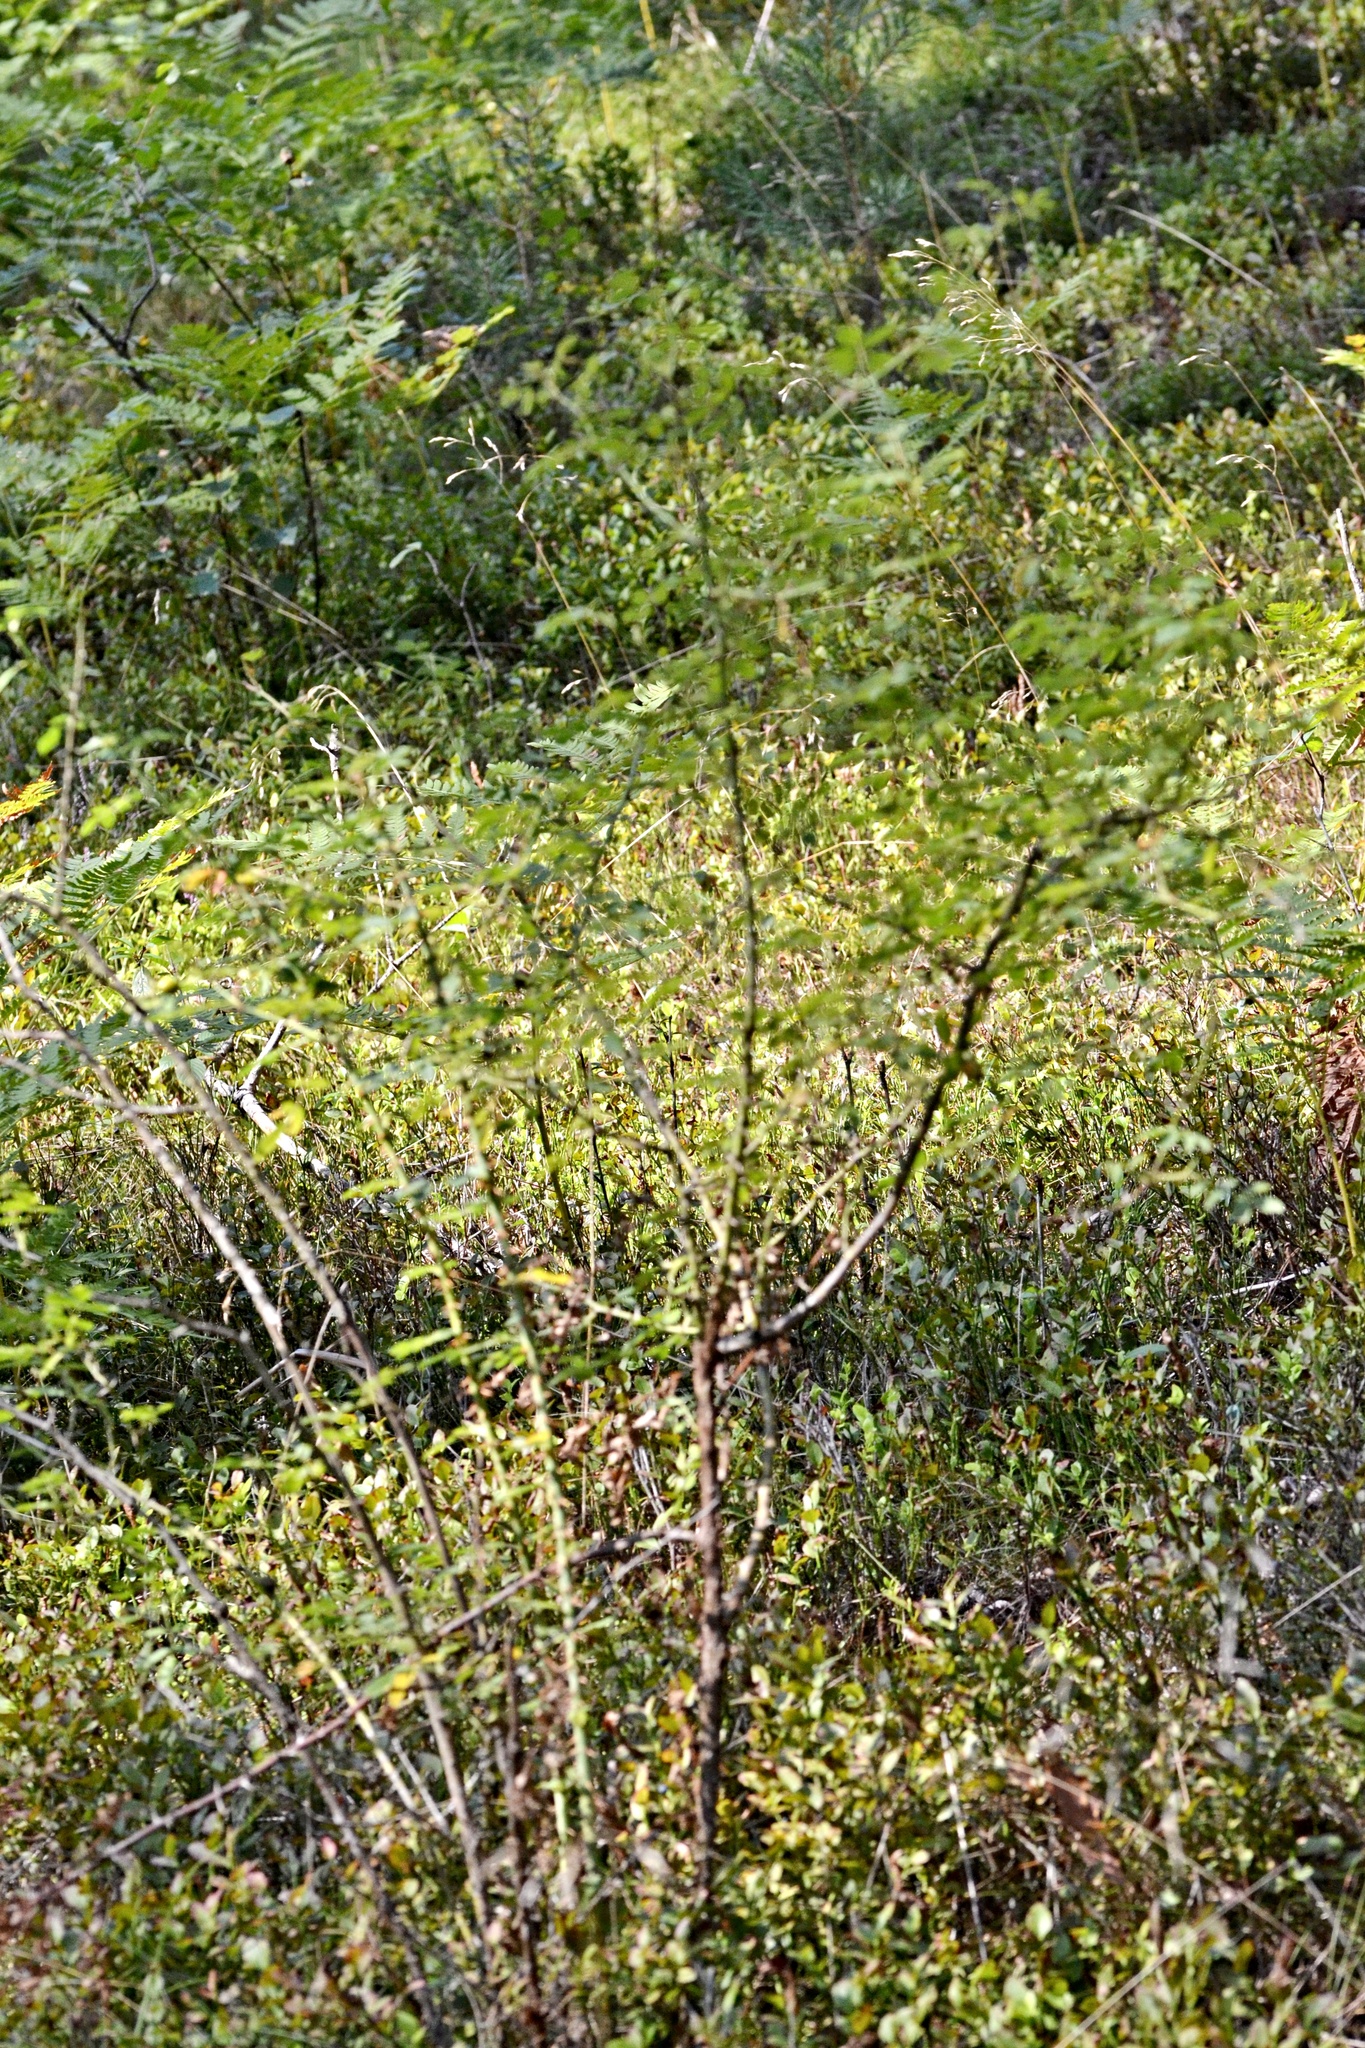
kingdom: Plantae
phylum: Tracheophyta
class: Magnoliopsida
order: Rosales
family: Rosaceae
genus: Rosa
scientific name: Rosa inodora
